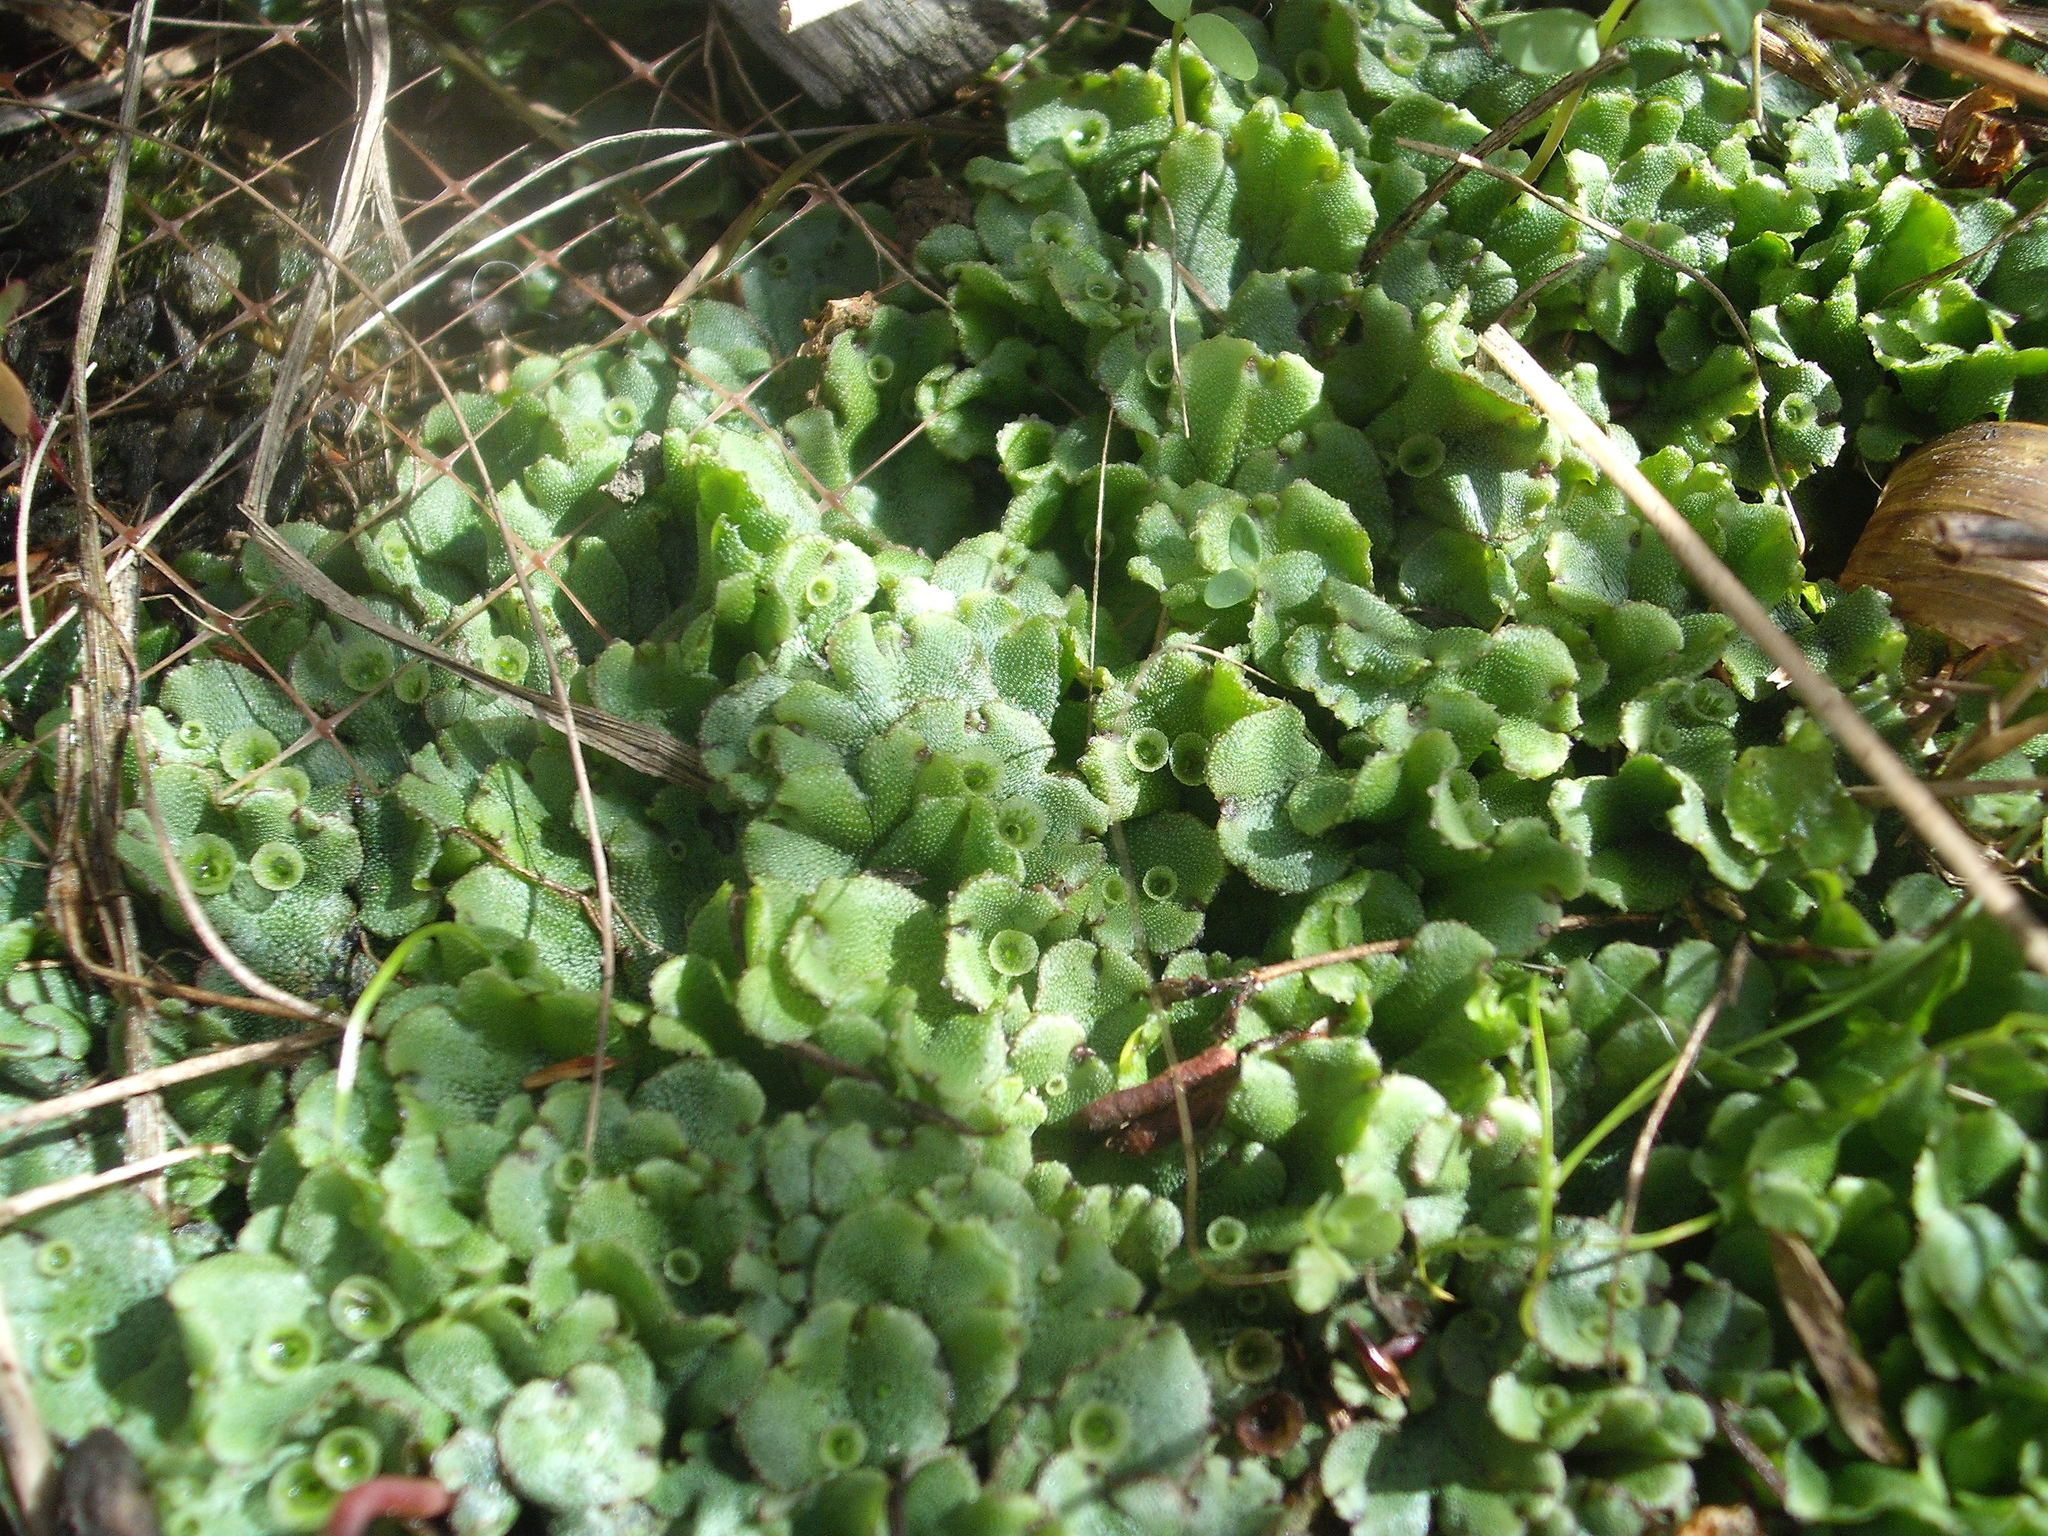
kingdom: Plantae
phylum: Marchantiophyta
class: Marchantiopsida
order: Marchantiales
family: Marchantiaceae
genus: Marchantia
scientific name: Marchantia polymorpha
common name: Common liverwort
